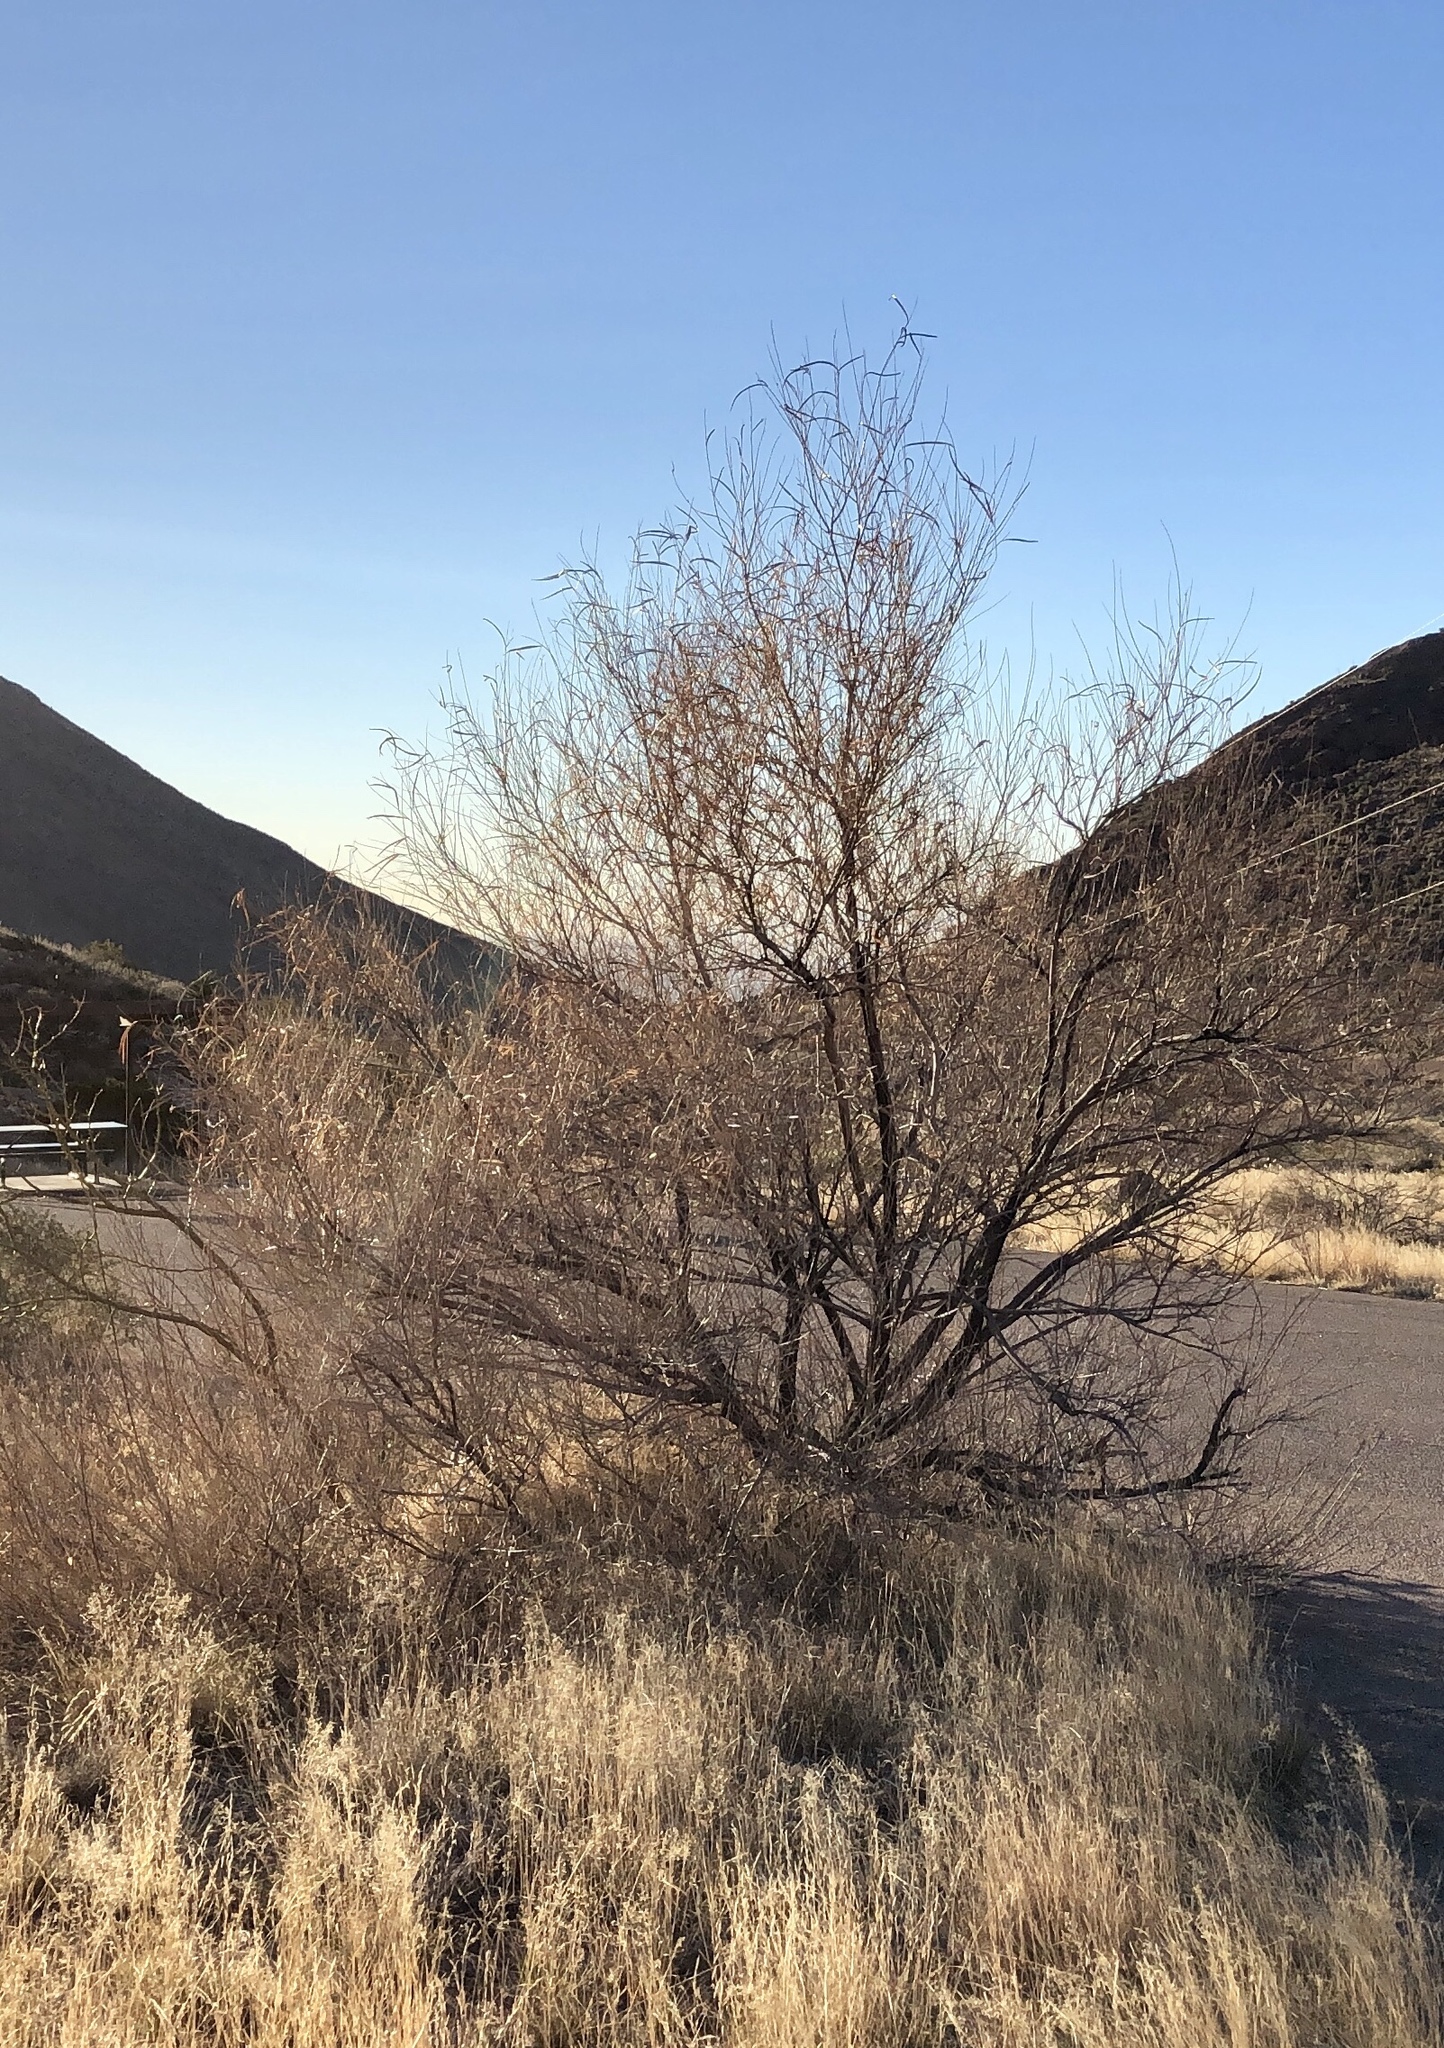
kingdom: Plantae
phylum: Tracheophyta
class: Magnoliopsida
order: Lamiales
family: Bignoniaceae
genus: Chilopsis
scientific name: Chilopsis linearis
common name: Desert-willow
